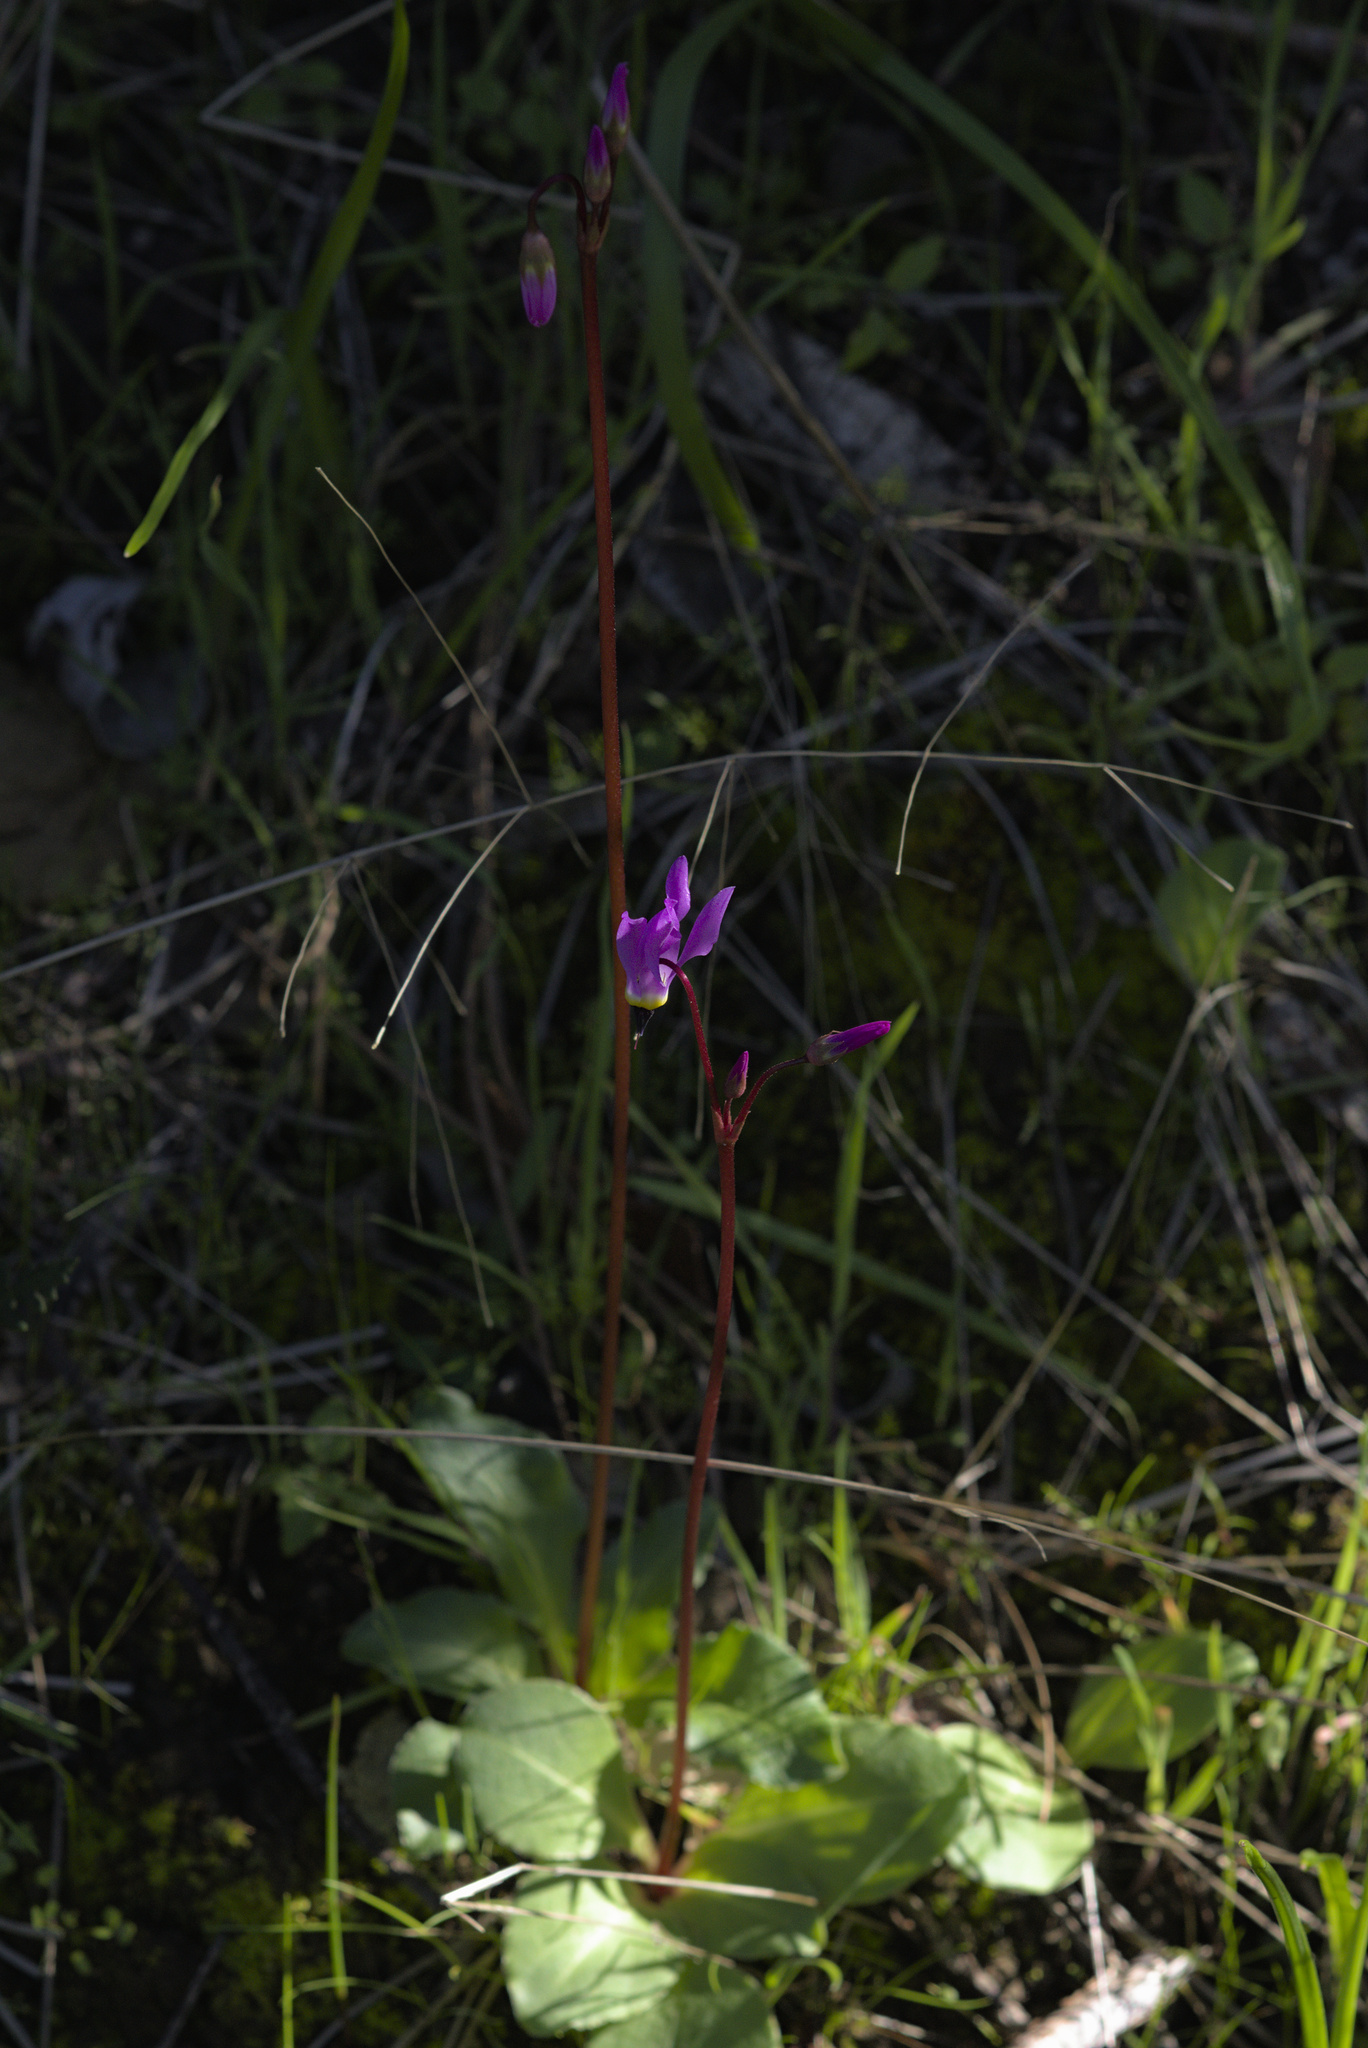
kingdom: Plantae
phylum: Tracheophyta
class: Magnoliopsida
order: Ericales
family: Primulaceae
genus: Dodecatheon
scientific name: Dodecatheon hendersonii
